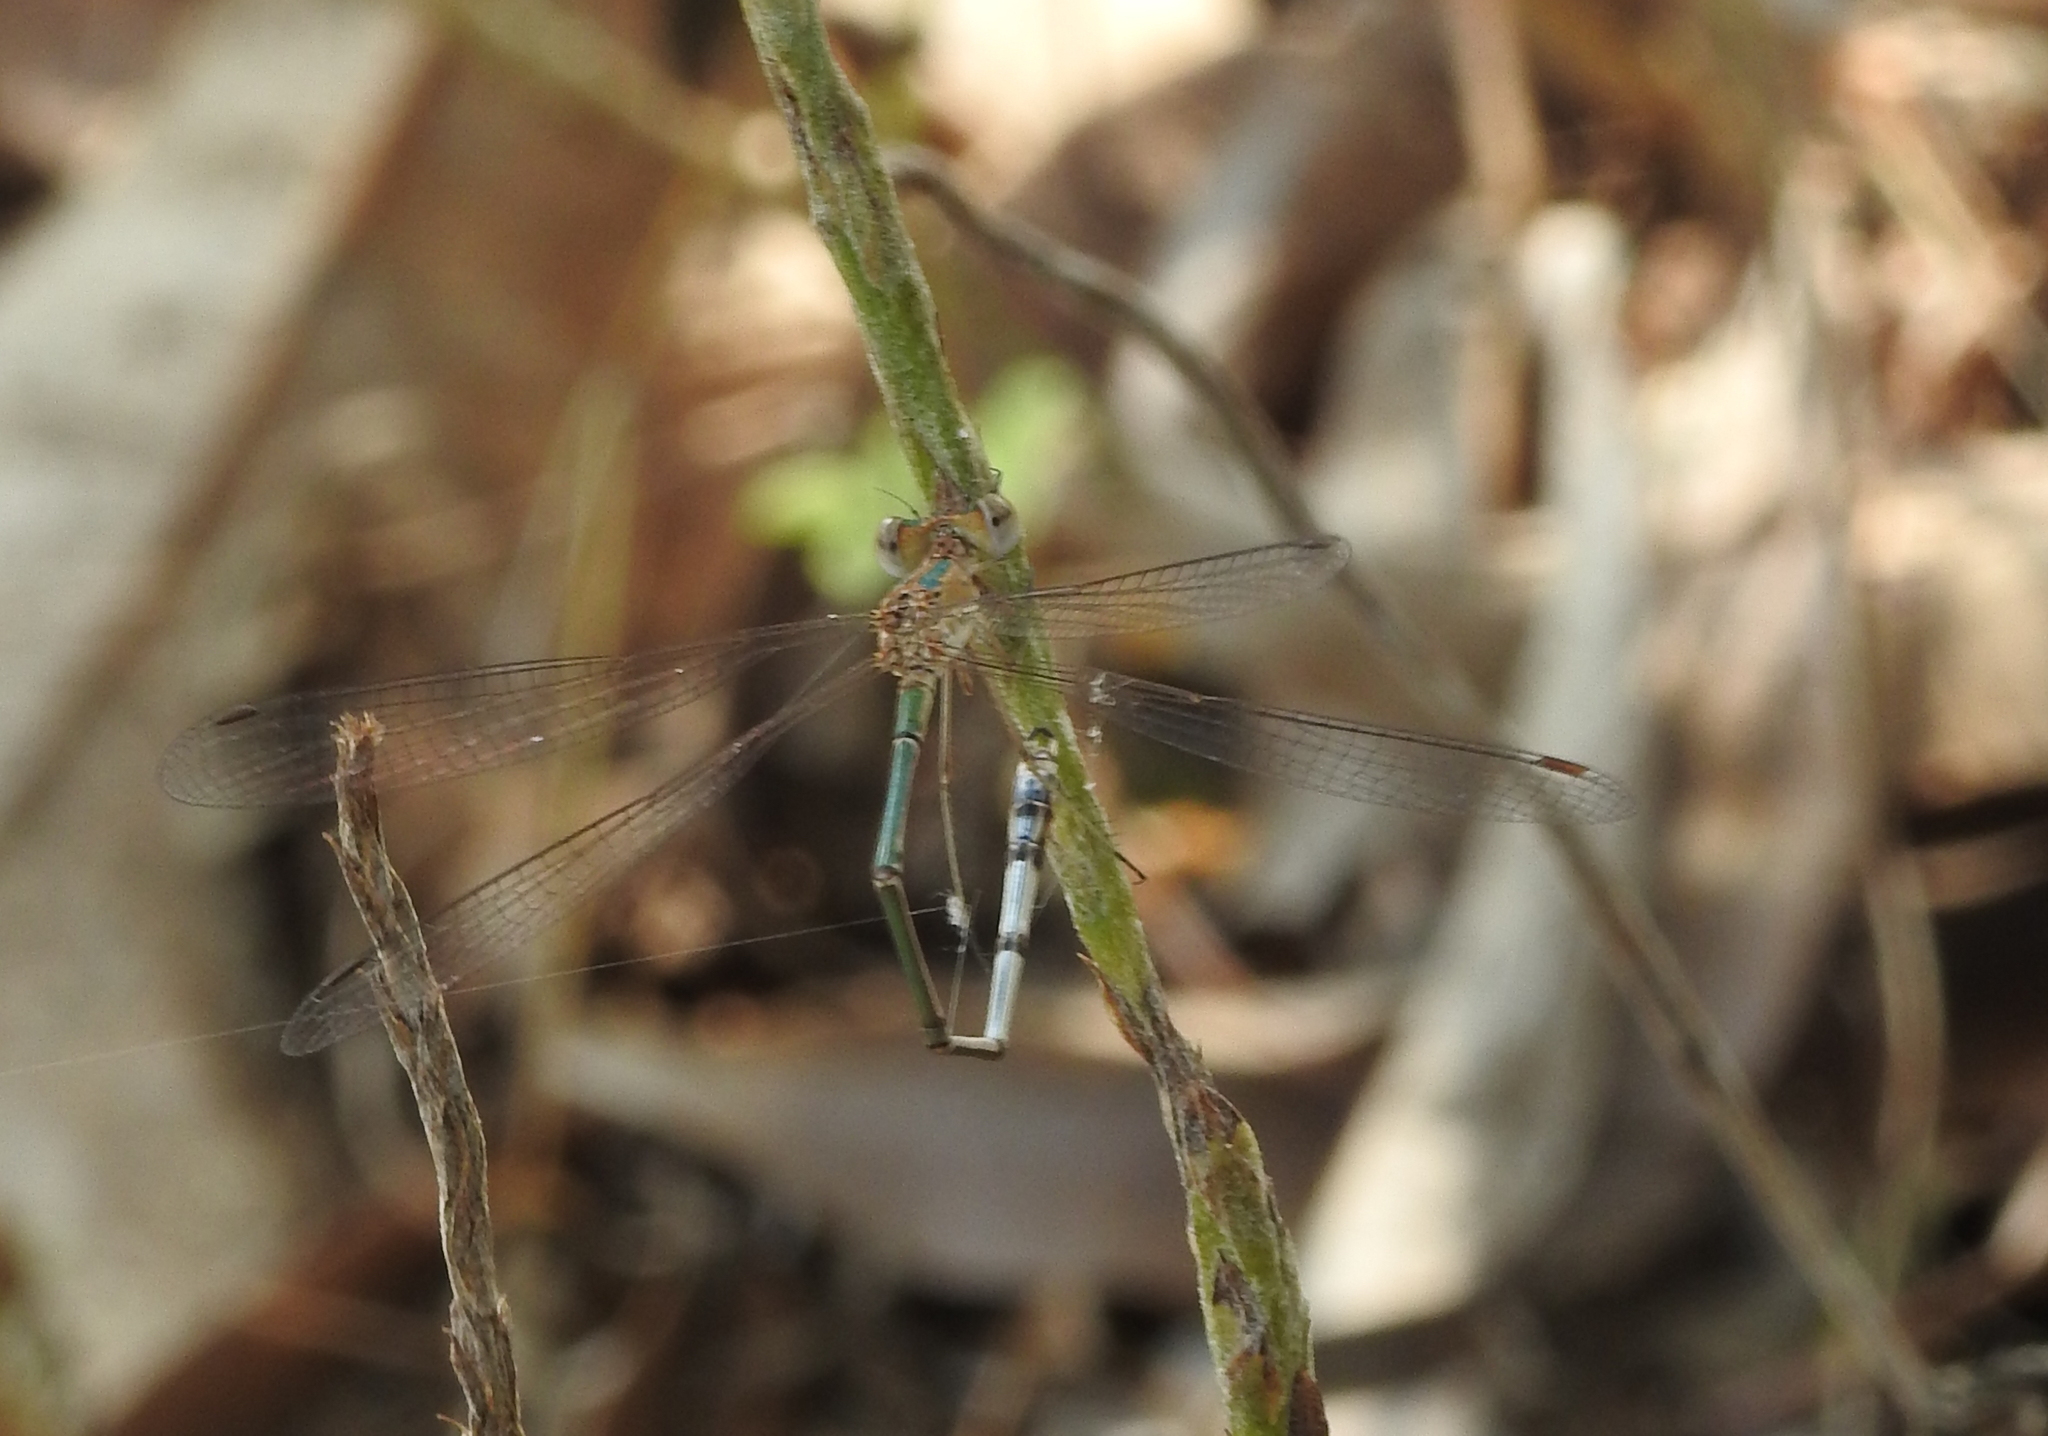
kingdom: Animalia
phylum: Arthropoda
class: Insecta
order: Odonata
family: Lestidae
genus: Lestes
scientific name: Lestes elatus
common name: Emerald spreadwing
